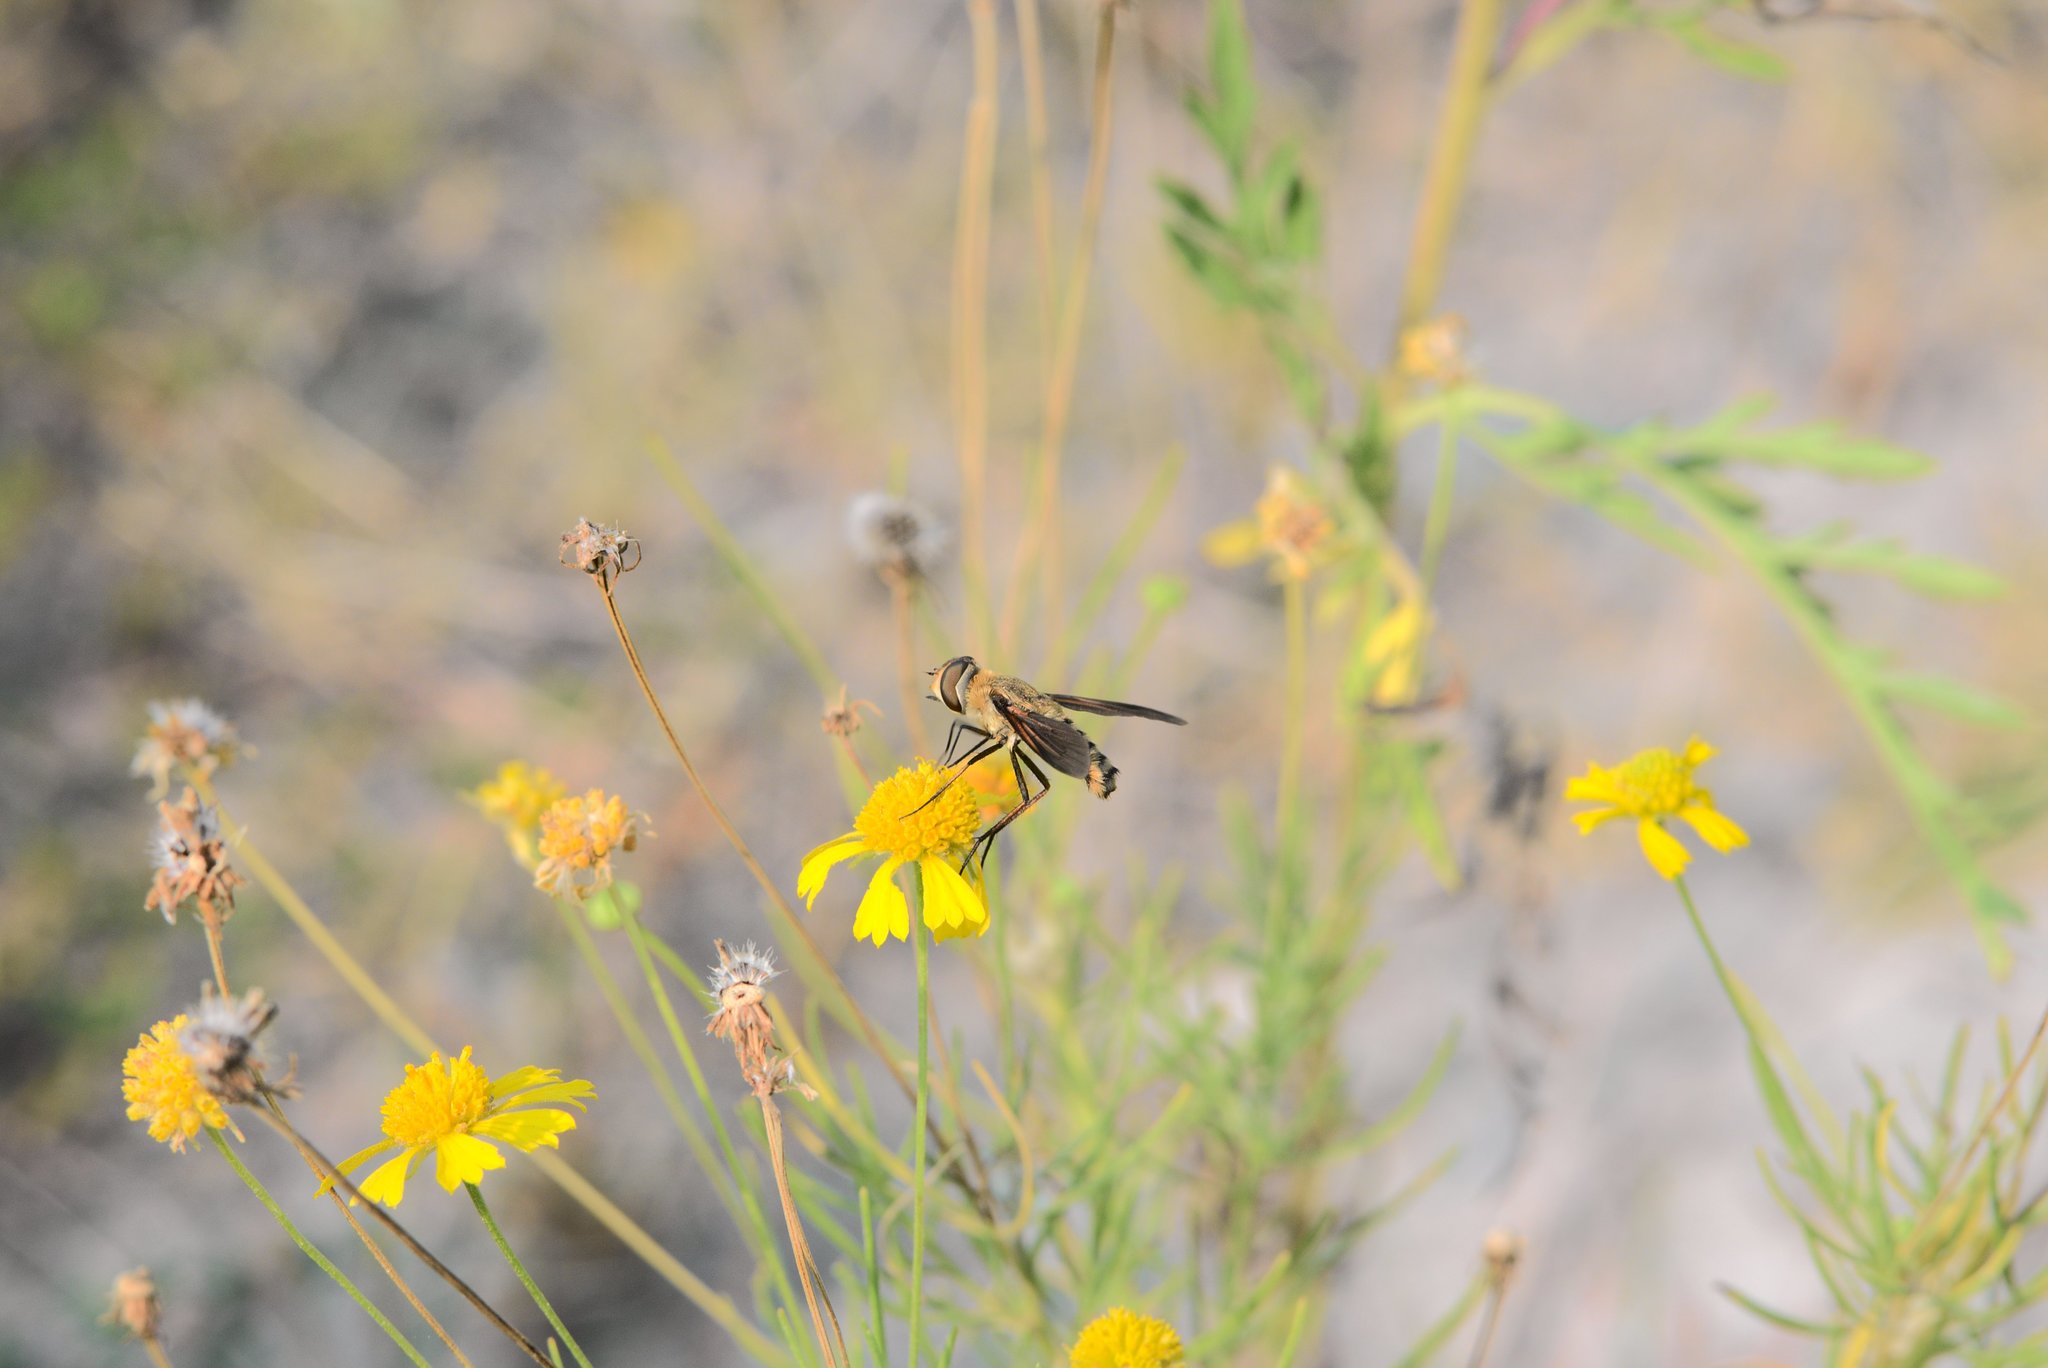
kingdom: Animalia
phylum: Arthropoda
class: Insecta
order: Diptera
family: Bombyliidae
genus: Poecilanthrax
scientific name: Poecilanthrax lucifer
